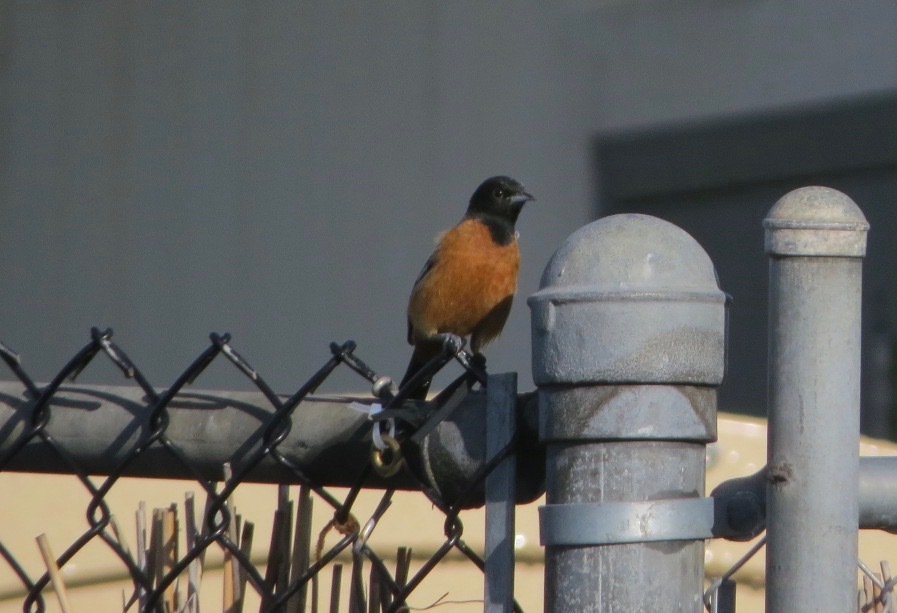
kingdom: Animalia
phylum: Chordata
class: Aves
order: Passeriformes
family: Icteridae
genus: Icterus
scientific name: Icterus spurius
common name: Orchard oriole
